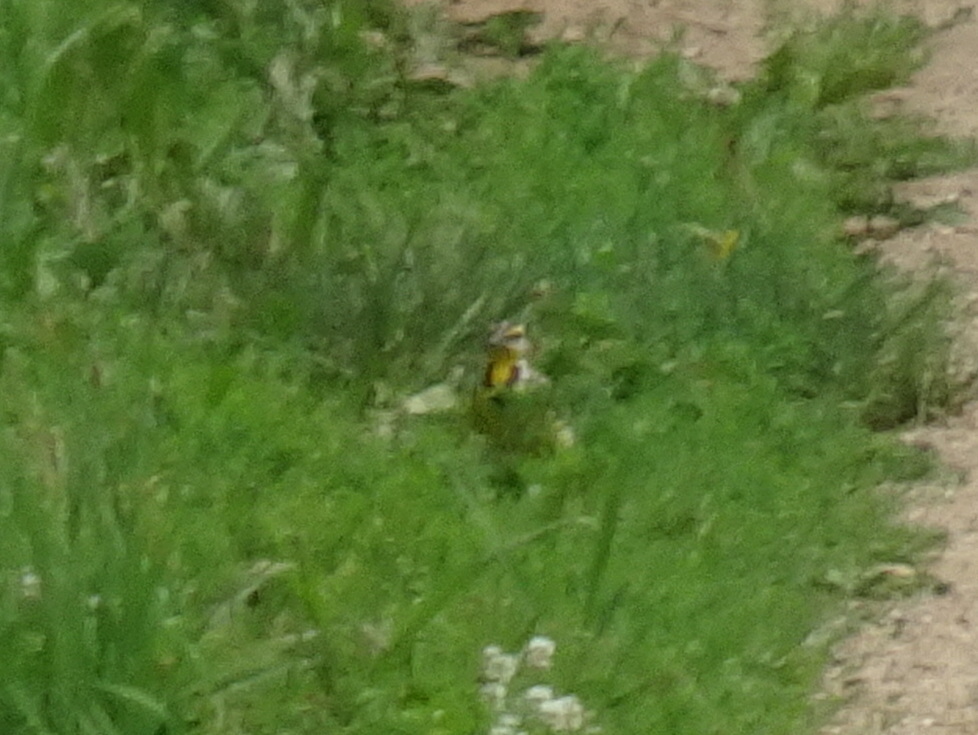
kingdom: Animalia
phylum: Chordata
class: Aves
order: Passeriformes
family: Icteridae
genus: Sturnella
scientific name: Sturnella magna
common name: Eastern meadowlark
